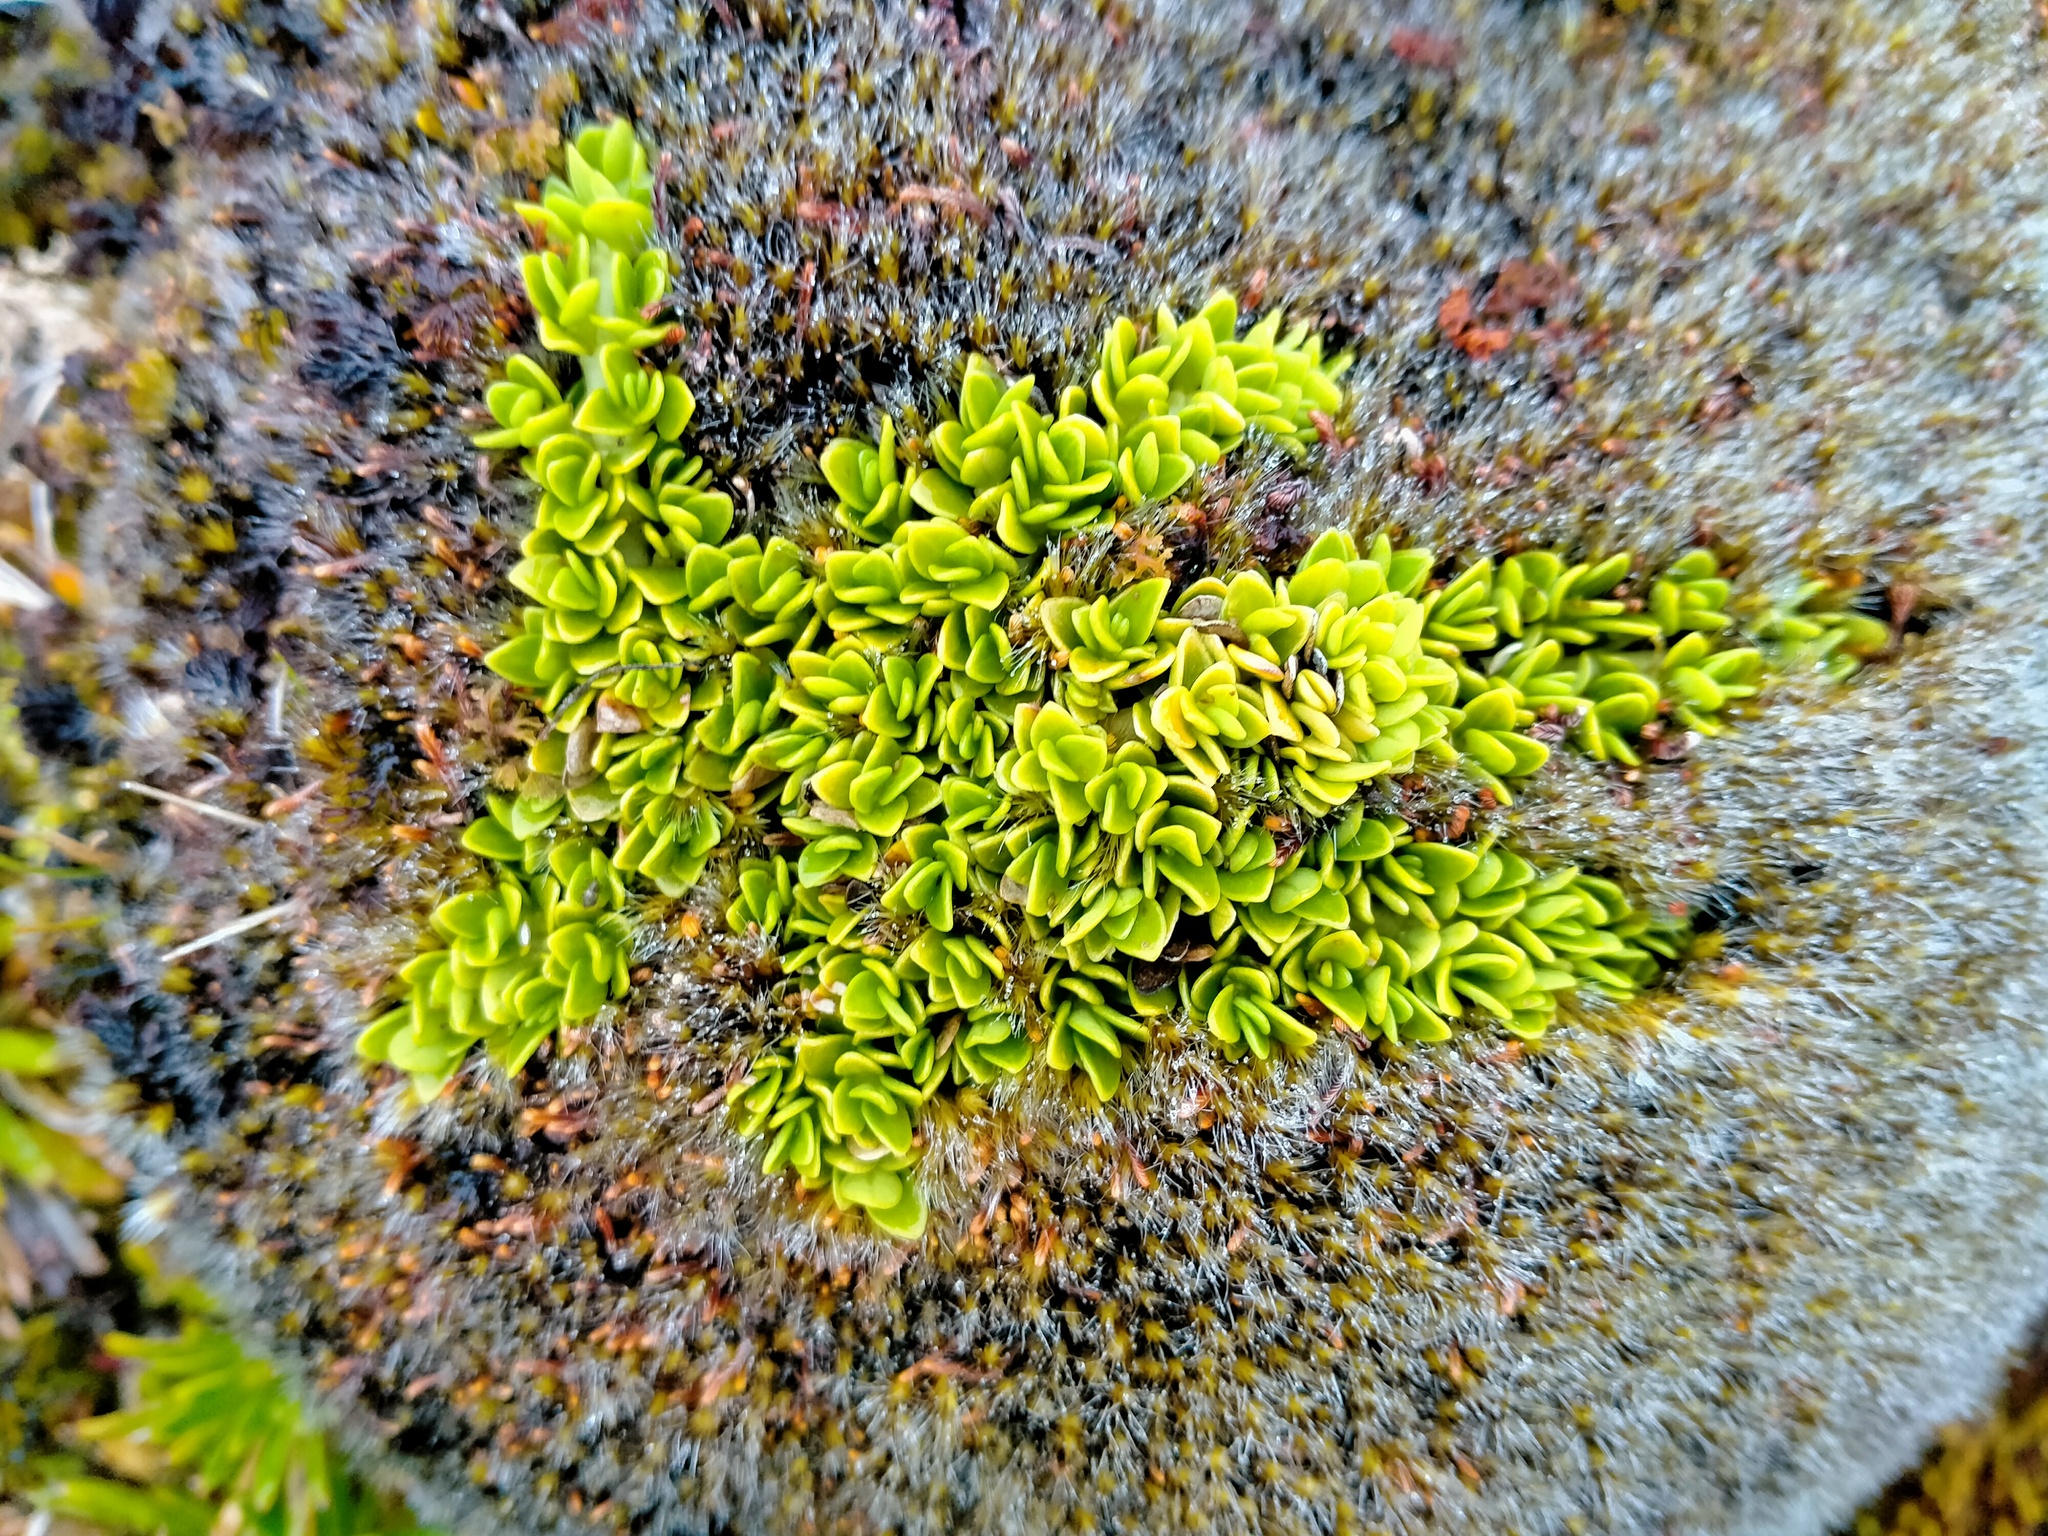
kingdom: Plantae
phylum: Tracheophyta
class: Magnoliopsida
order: Gentianales
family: Rubiaceae
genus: Coprosma
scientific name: Coprosma perpusilla
